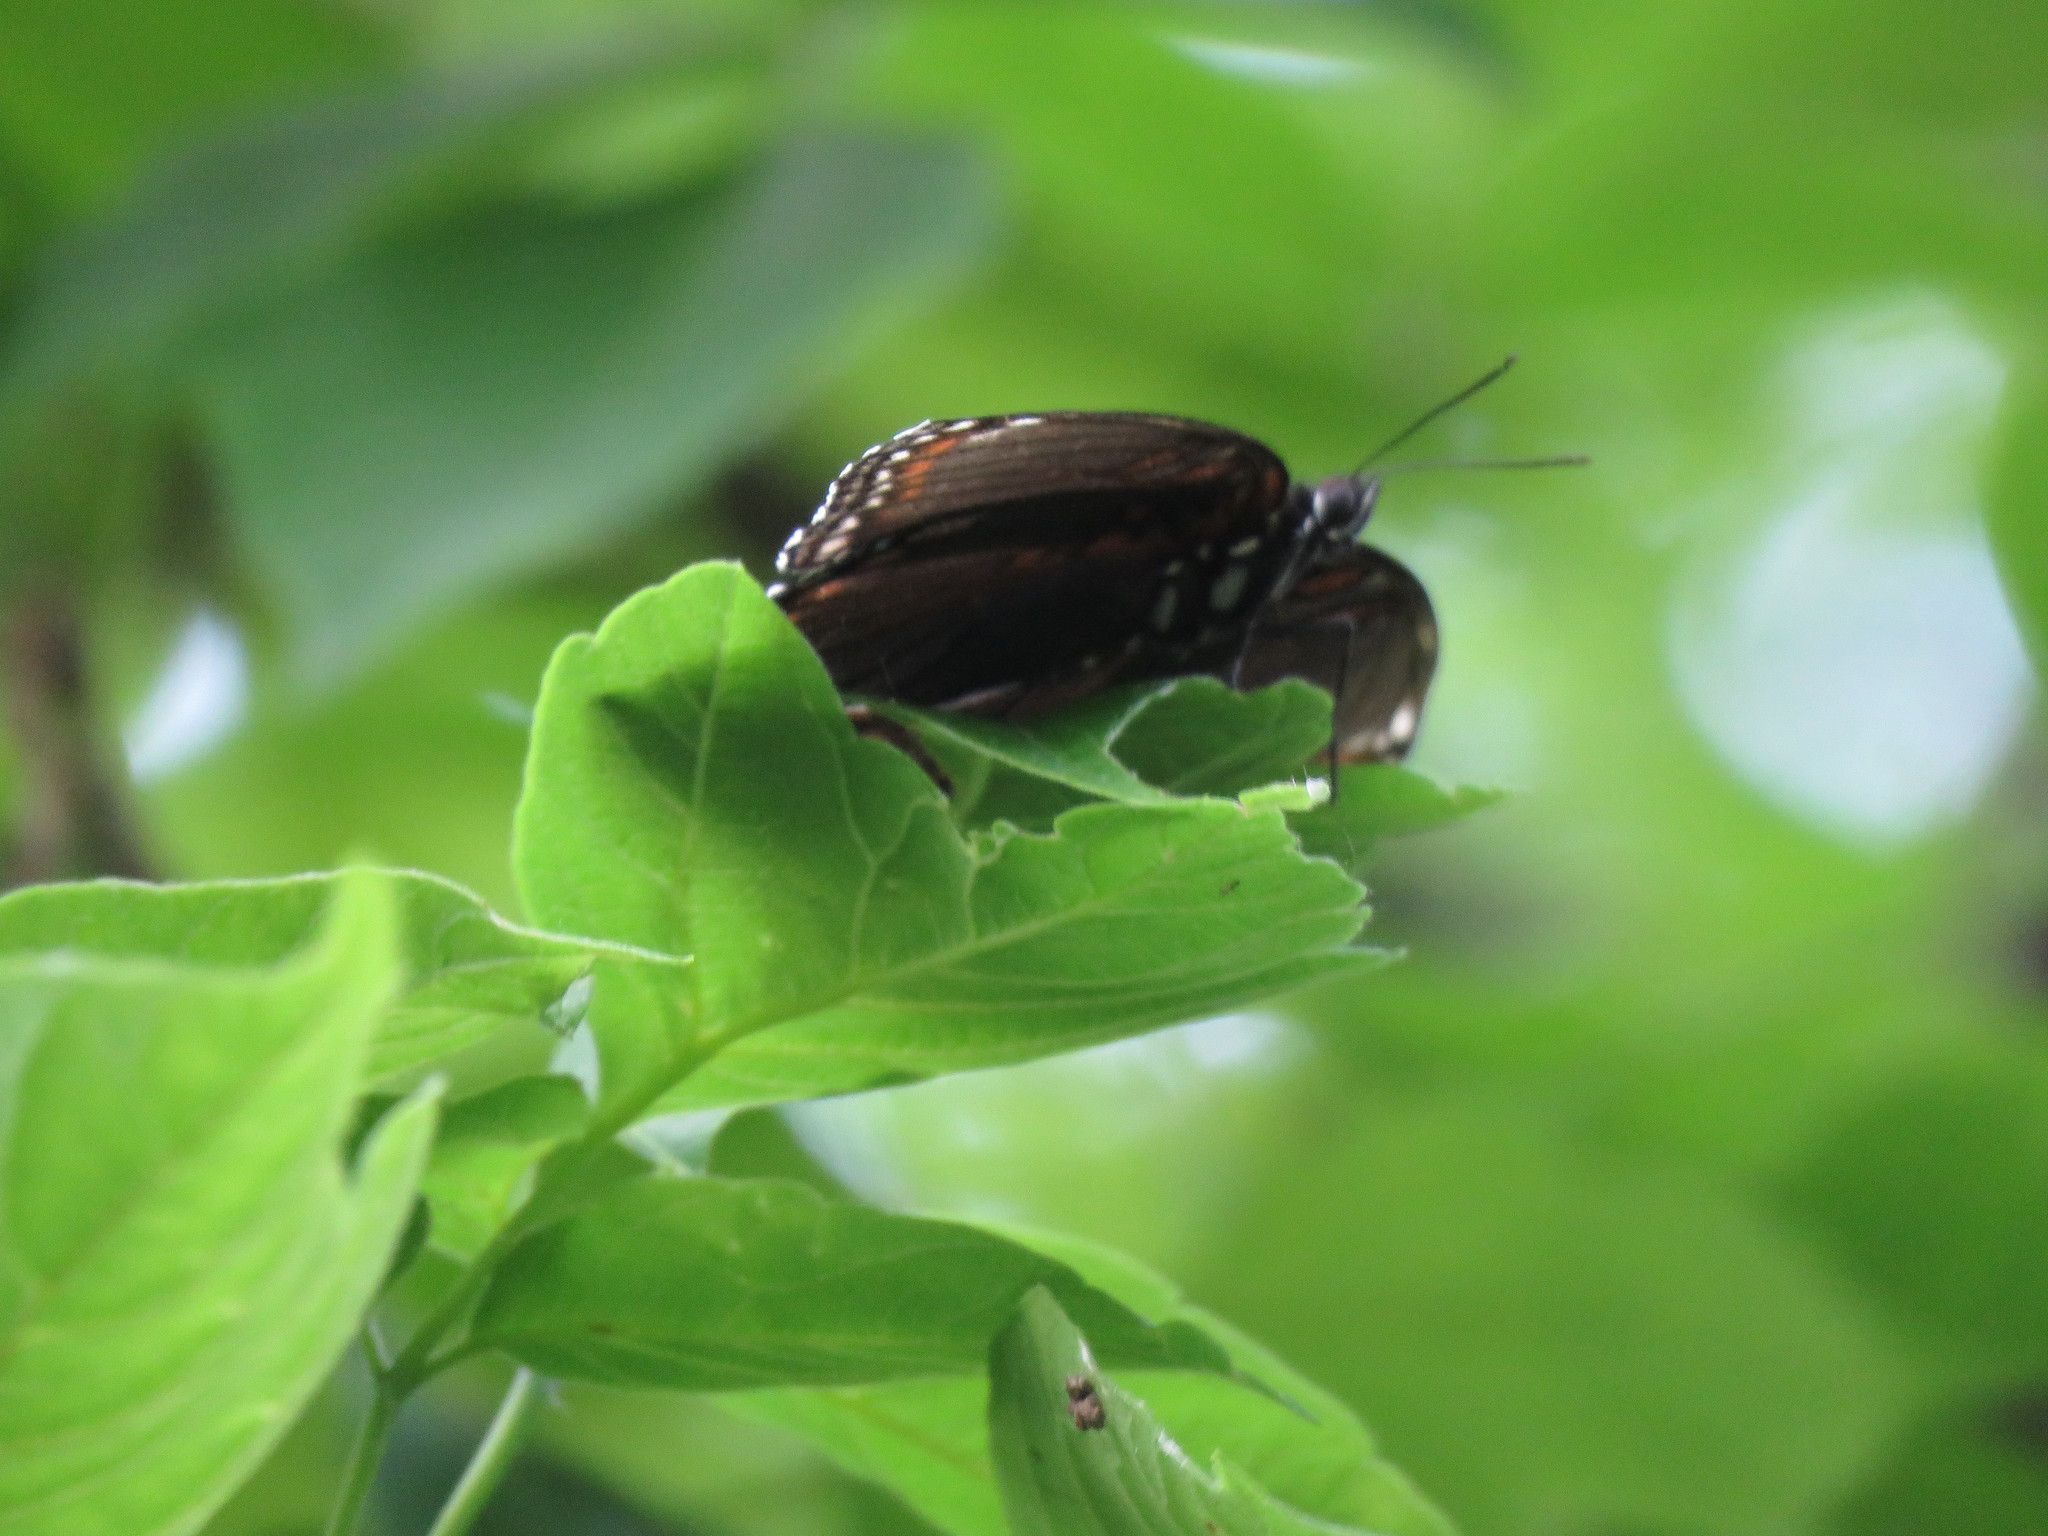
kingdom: Animalia
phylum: Arthropoda
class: Insecta
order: Lepidoptera
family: Nymphalidae
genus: Limenitis
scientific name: Limenitis arthemis
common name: Red-spotted admiral
